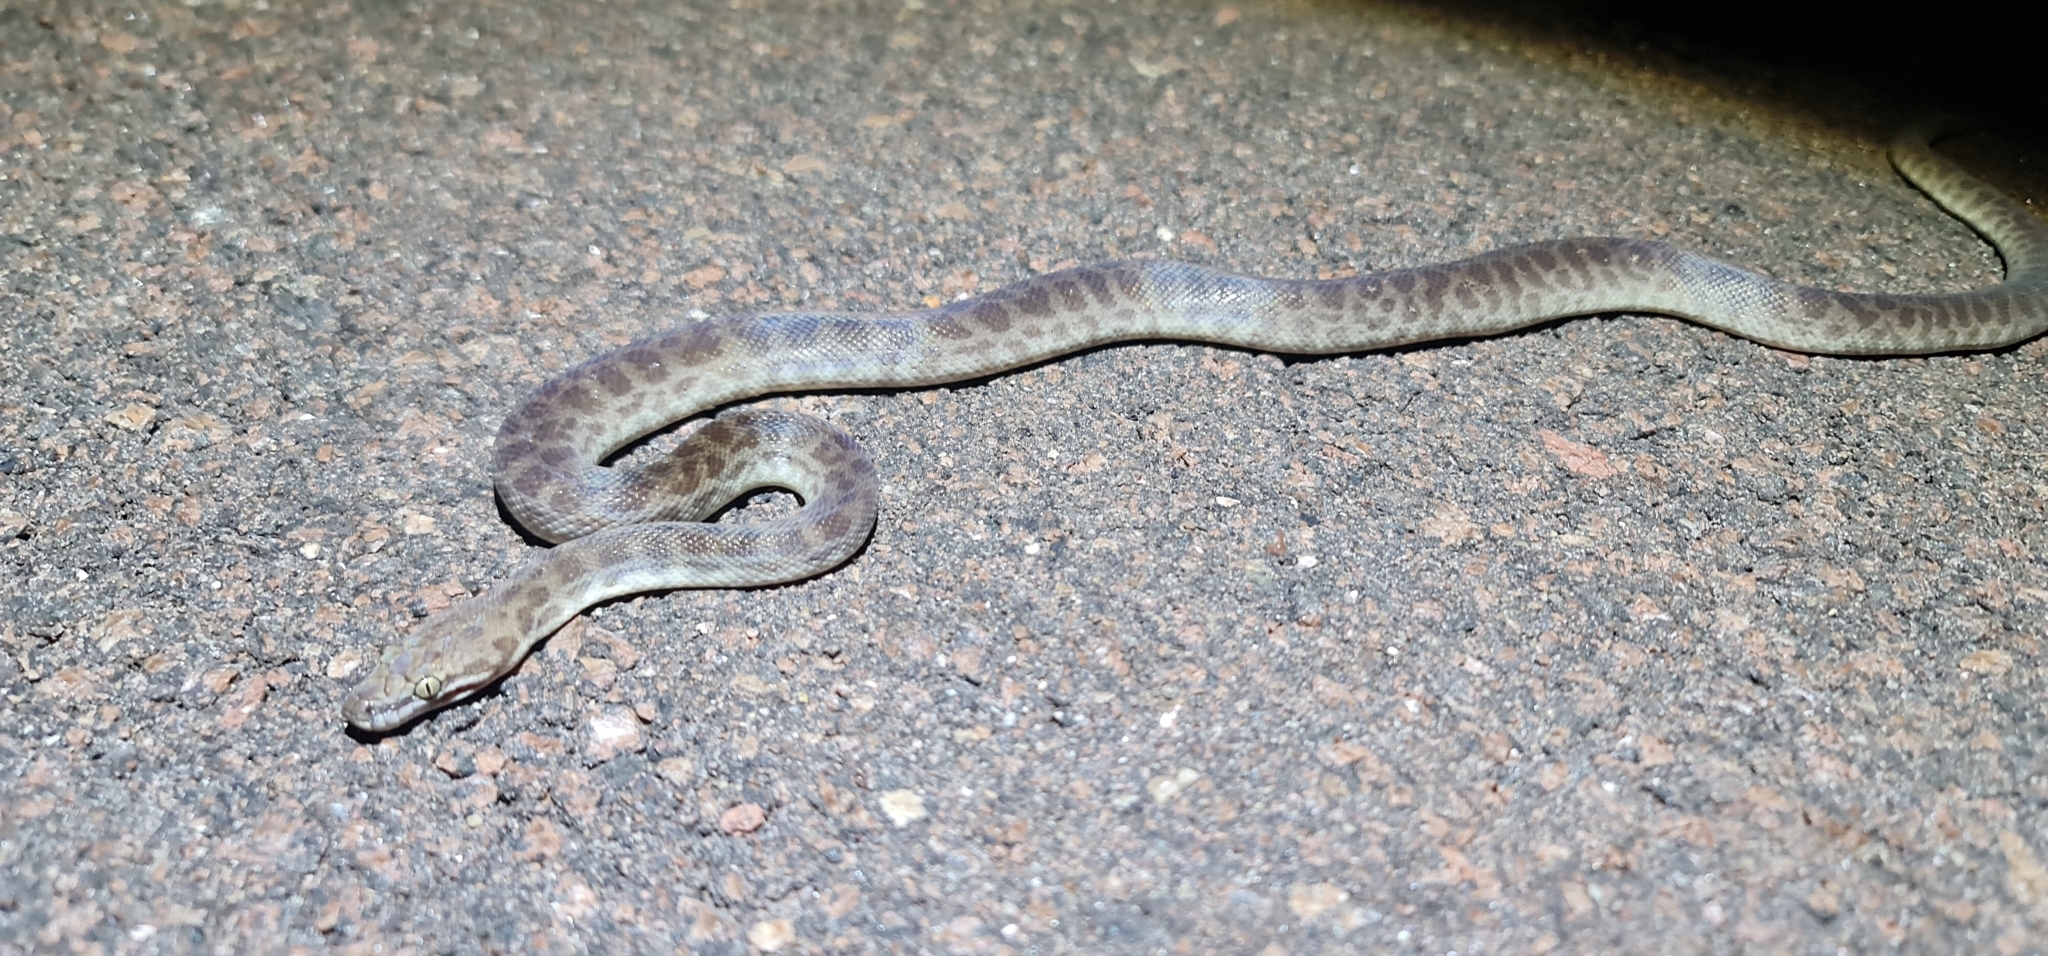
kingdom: Animalia
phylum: Chordata
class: Squamata
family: Pythonidae
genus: Antaresia
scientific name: Antaresia childreni
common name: Children's python
